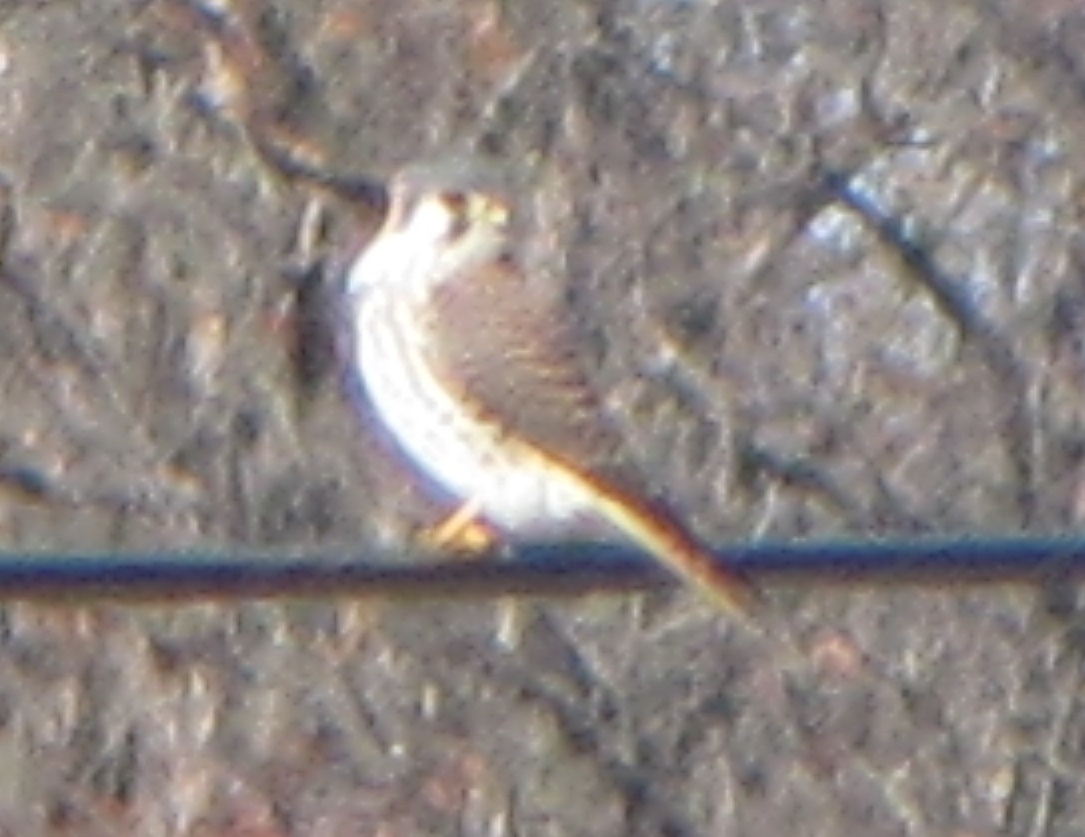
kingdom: Animalia
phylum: Chordata
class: Aves
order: Falconiformes
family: Falconidae
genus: Falco
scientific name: Falco sparverius
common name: American kestrel
